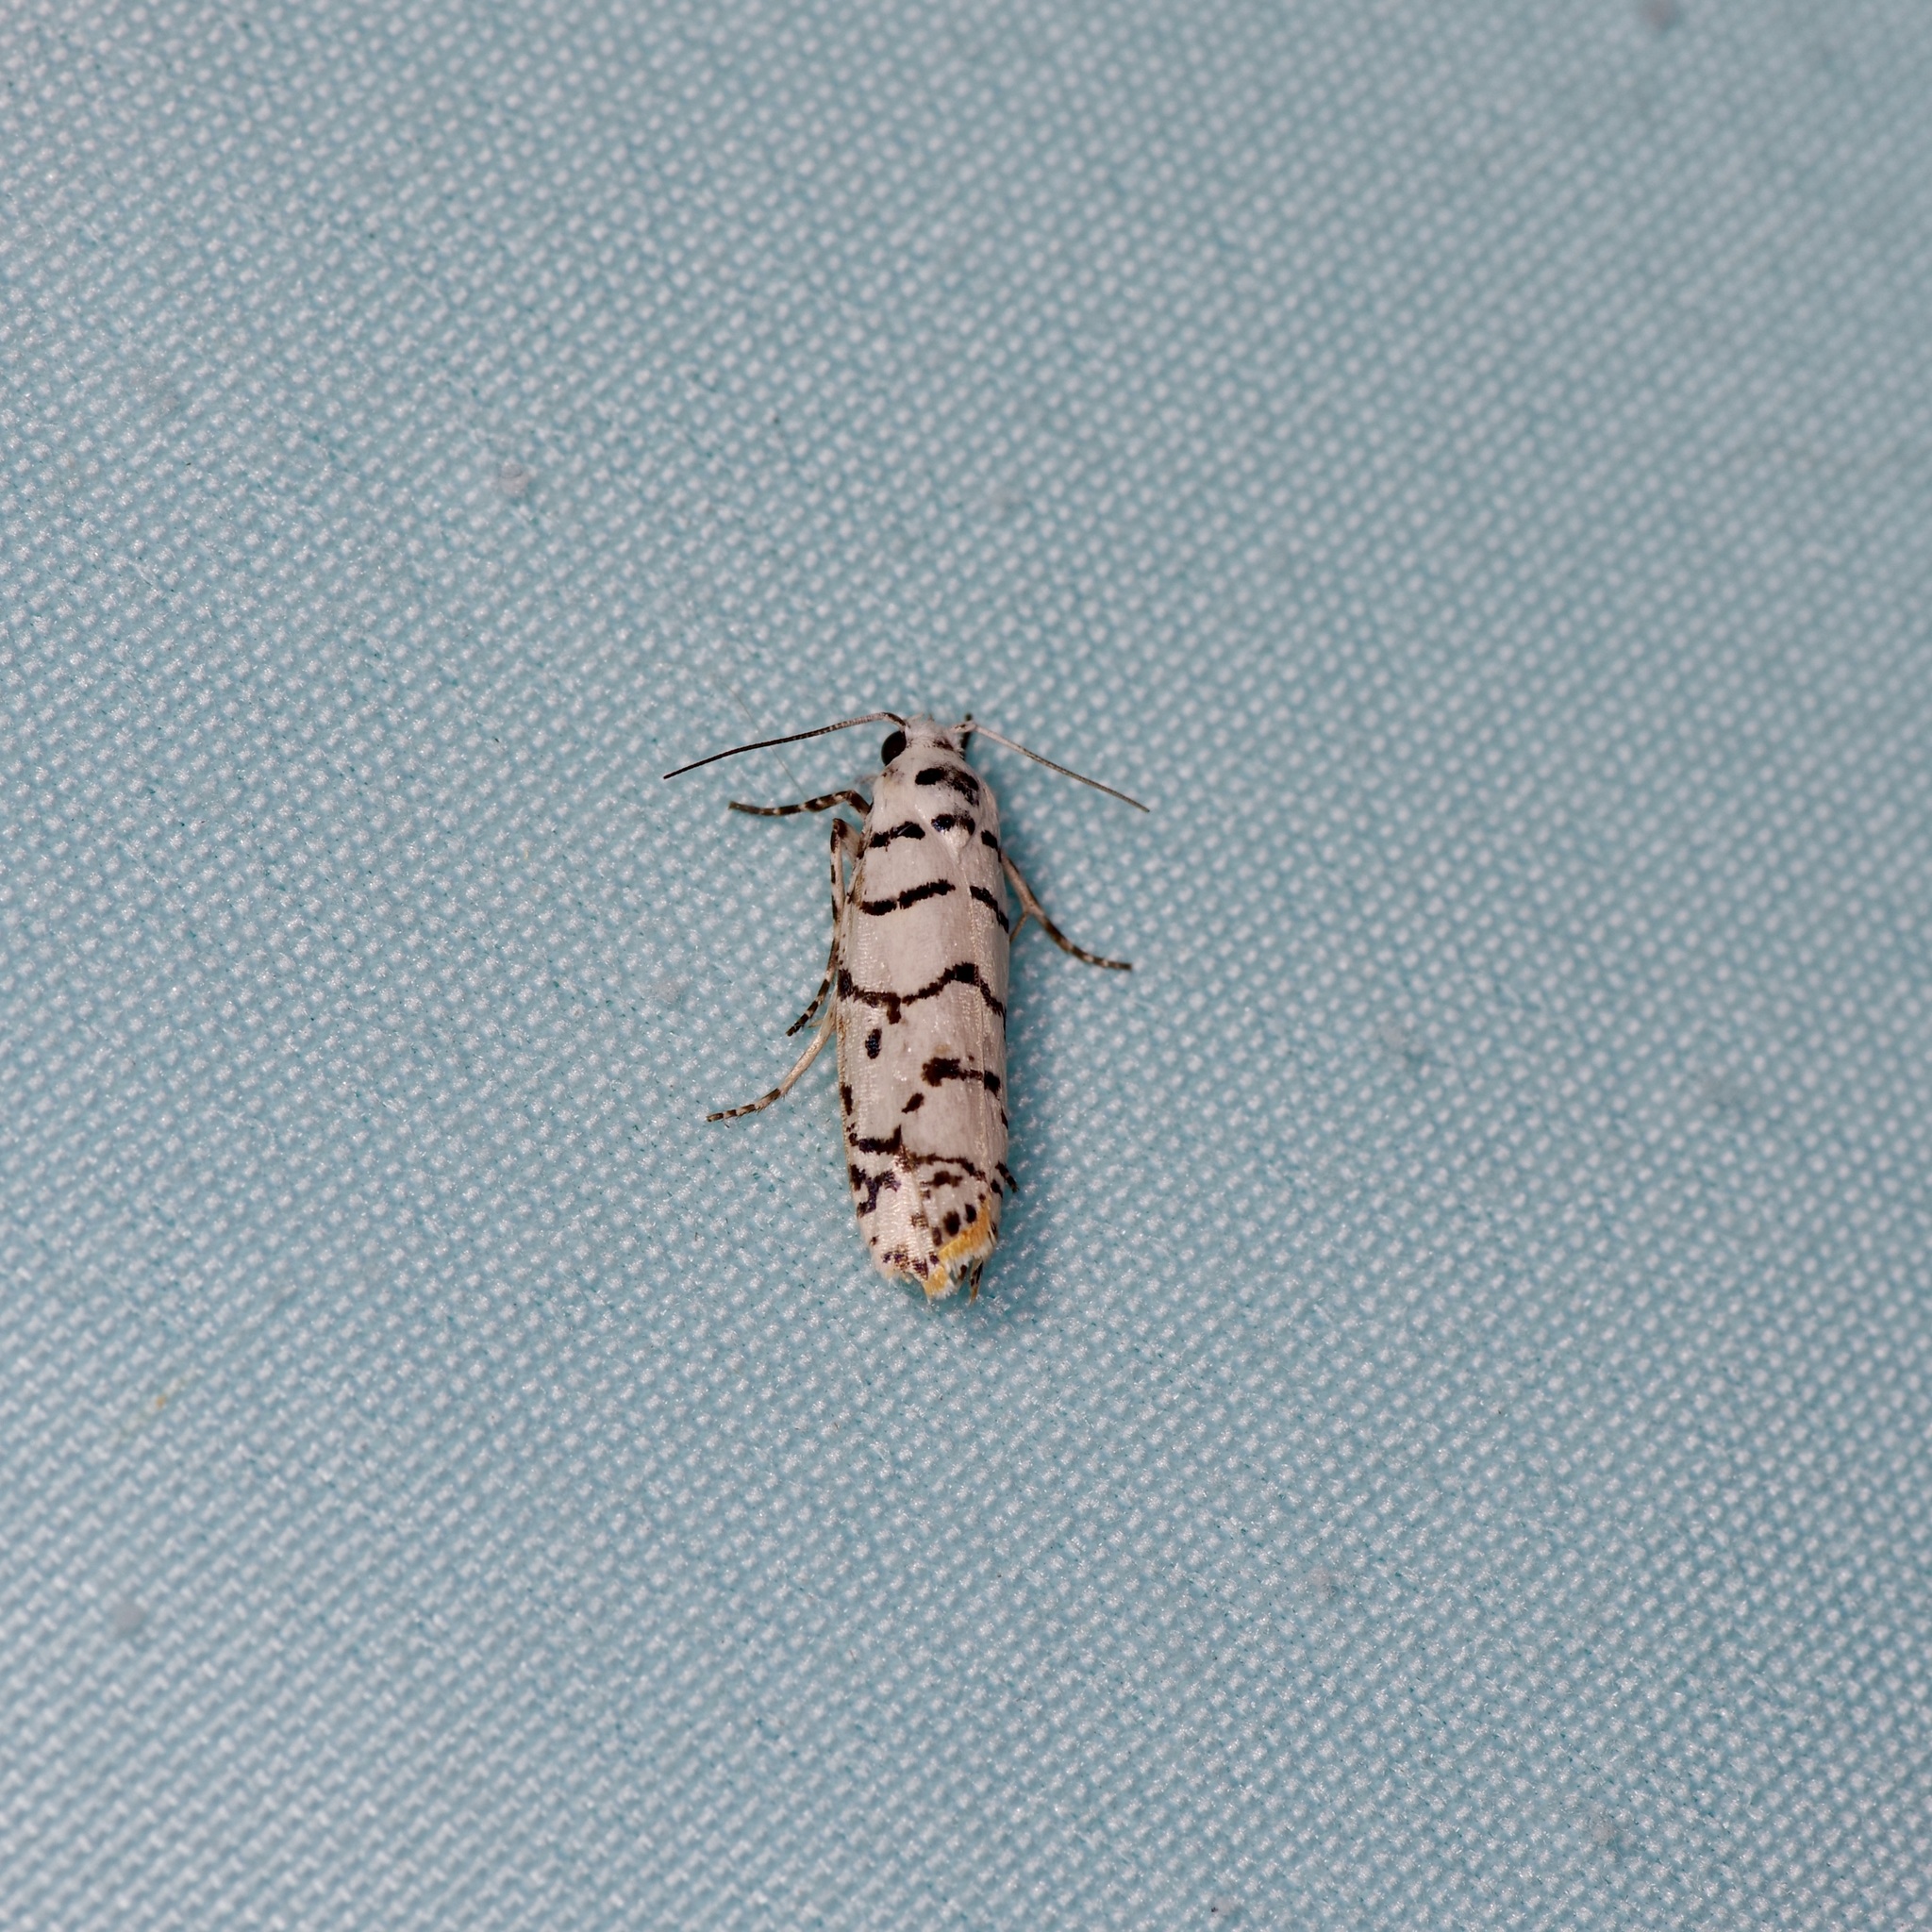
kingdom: Animalia
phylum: Arthropoda
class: Insecta
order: Lepidoptera
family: Ethmiidae
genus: Ethmia
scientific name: Ethmia delliella
